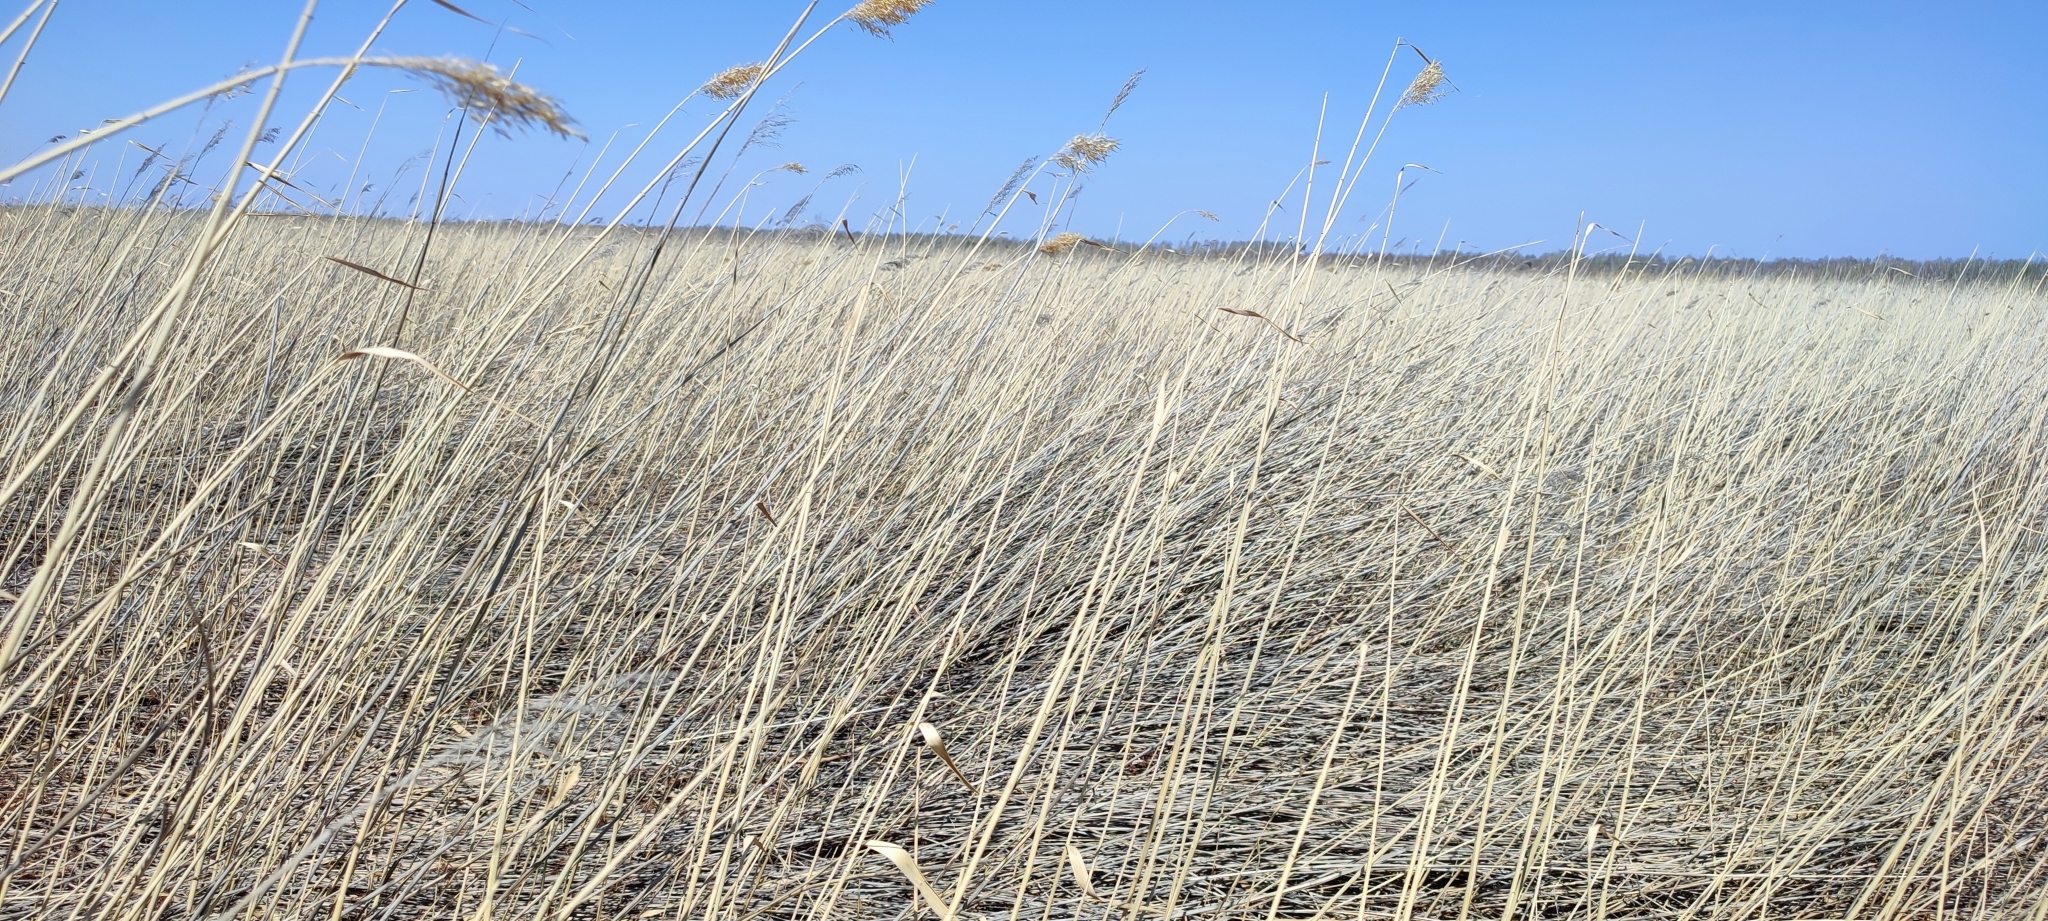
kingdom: Plantae
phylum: Tracheophyta
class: Liliopsida
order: Poales
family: Poaceae
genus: Phragmites
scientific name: Phragmites australis
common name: Common reed
